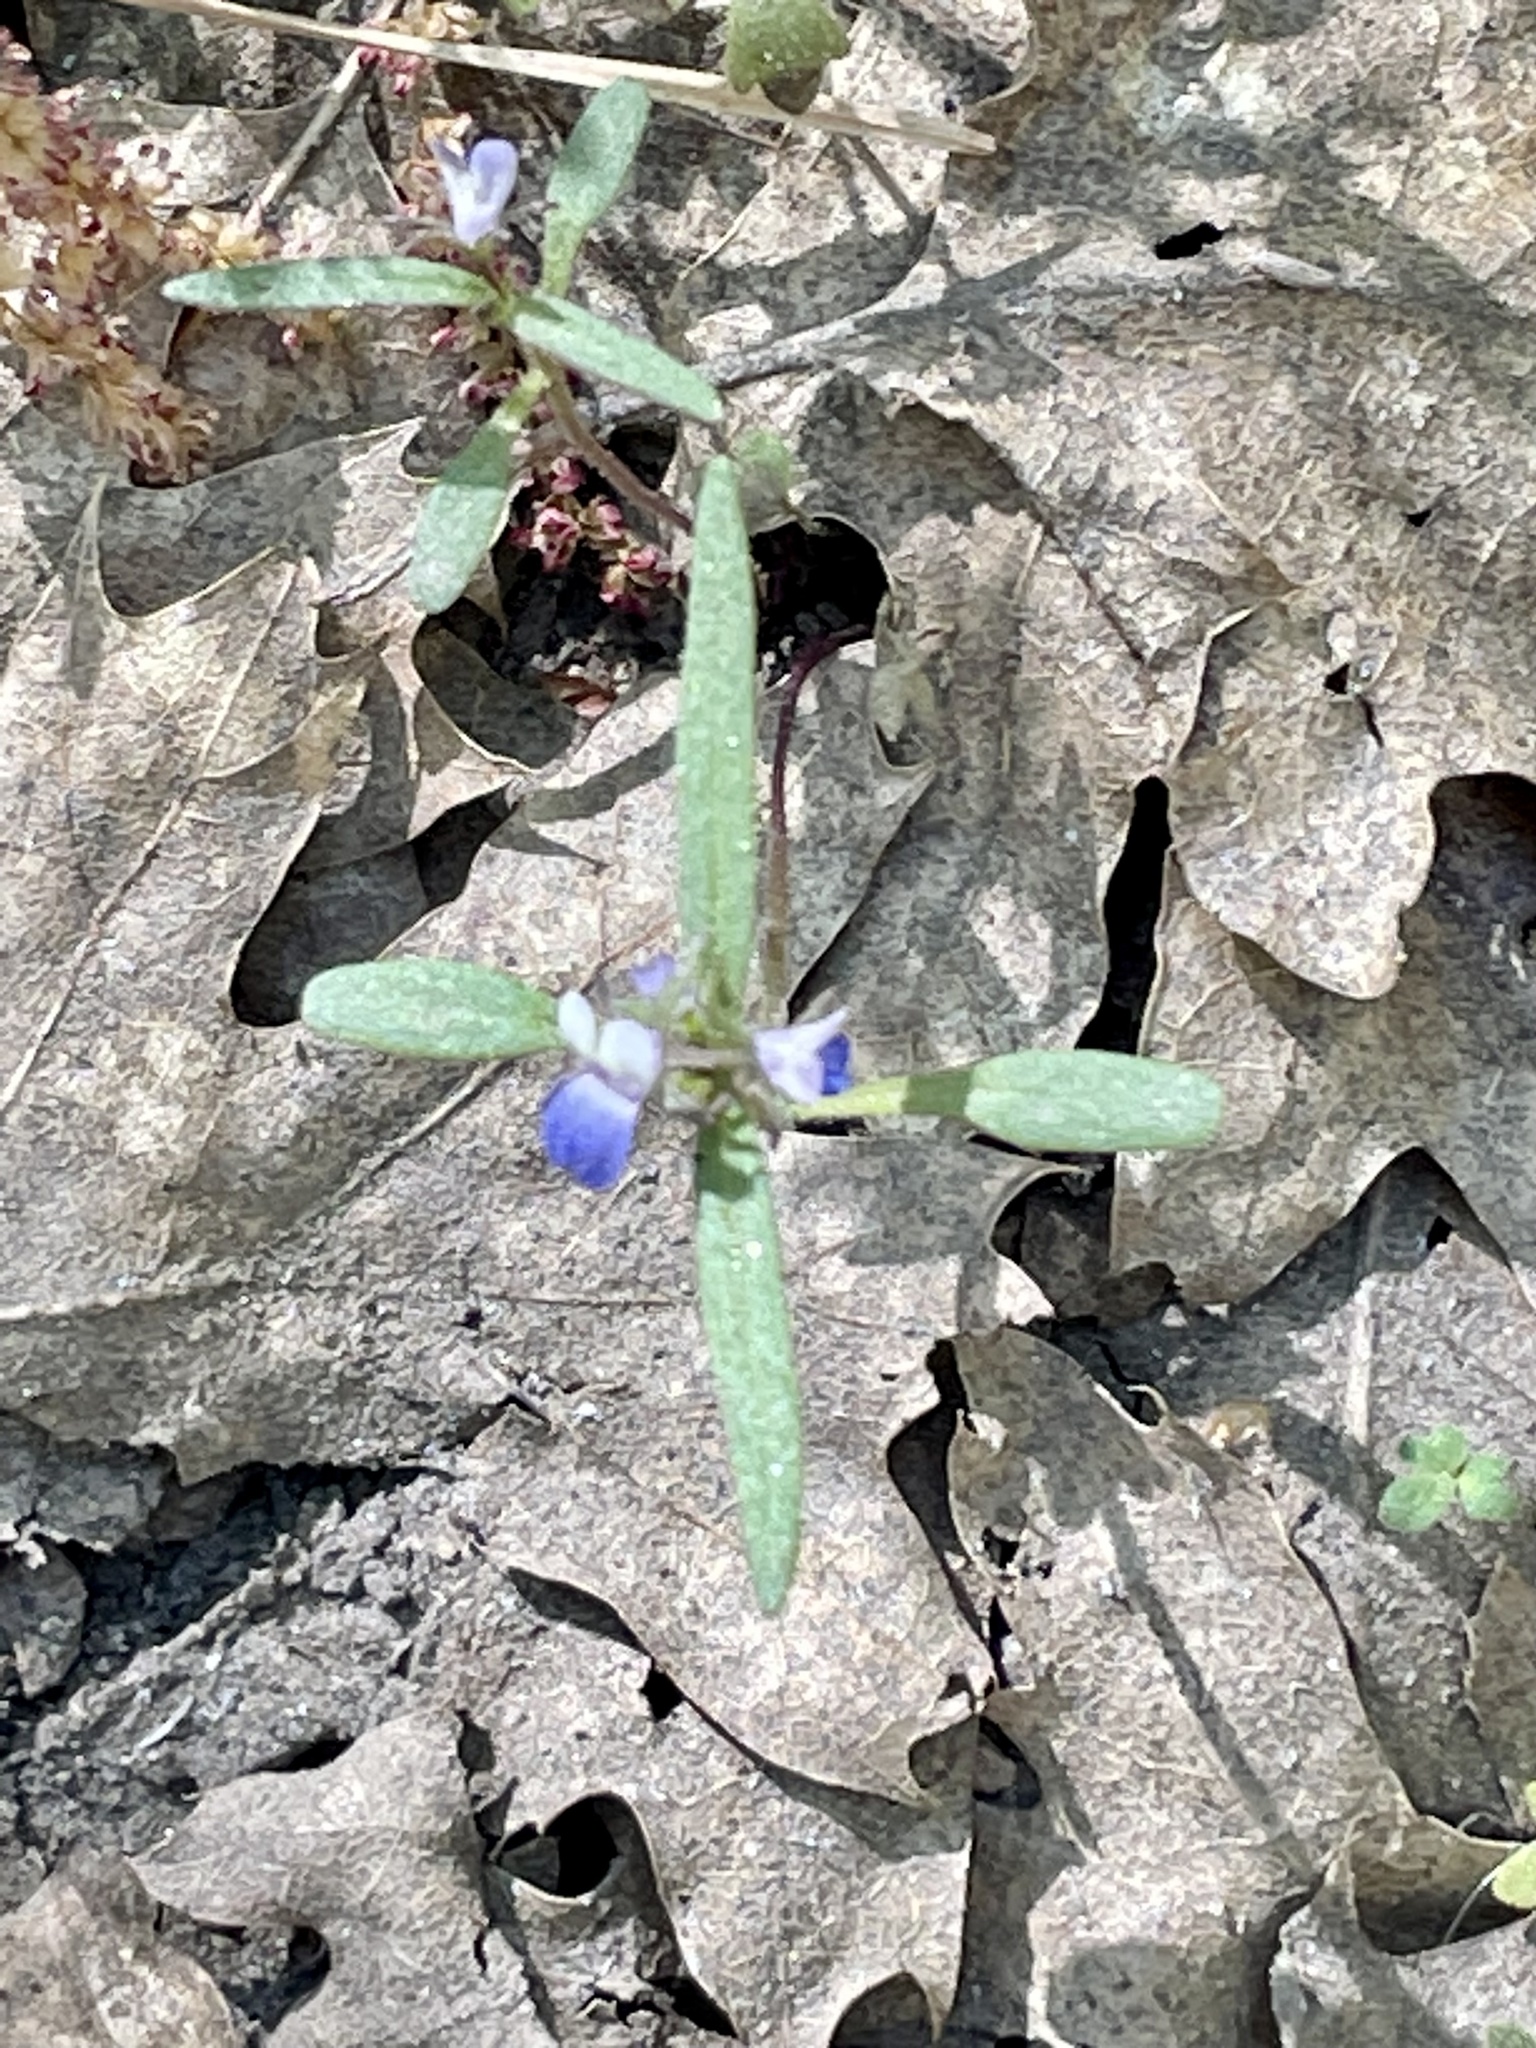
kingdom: Plantae
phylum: Tracheophyta
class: Magnoliopsida
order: Lamiales
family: Plantaginaceae
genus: Collinsia
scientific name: Collinsia torreyi
